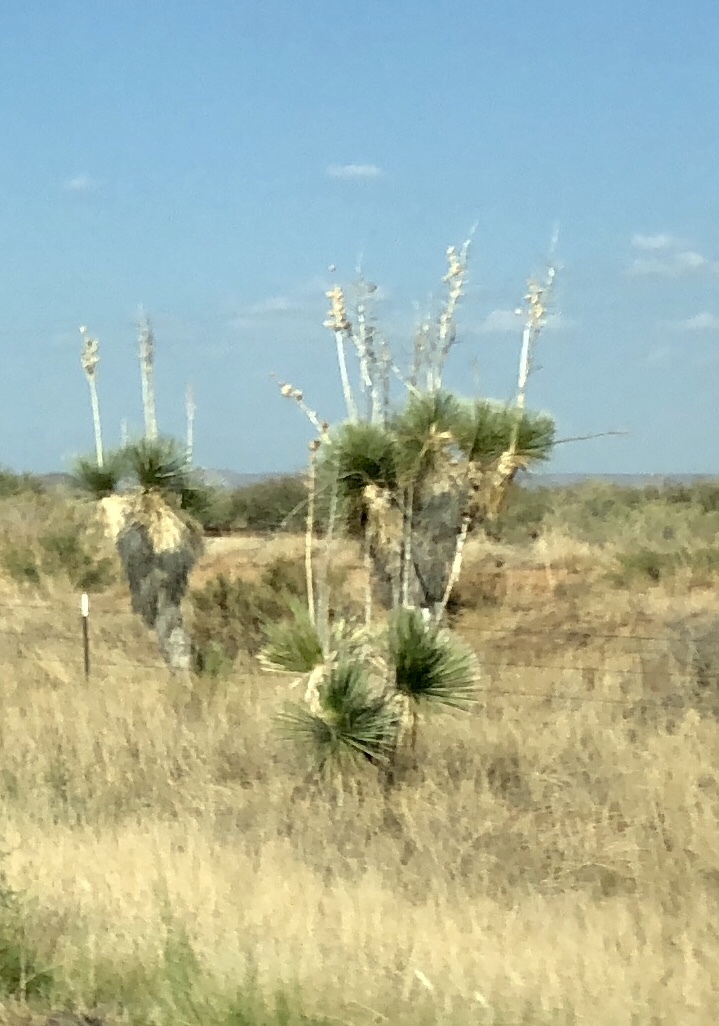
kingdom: Plantae
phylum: Tracheophyta
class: Liliopsida
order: Asparagales
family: Asparagaceae
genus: Yucca
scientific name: Yucca elata
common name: Palmella
